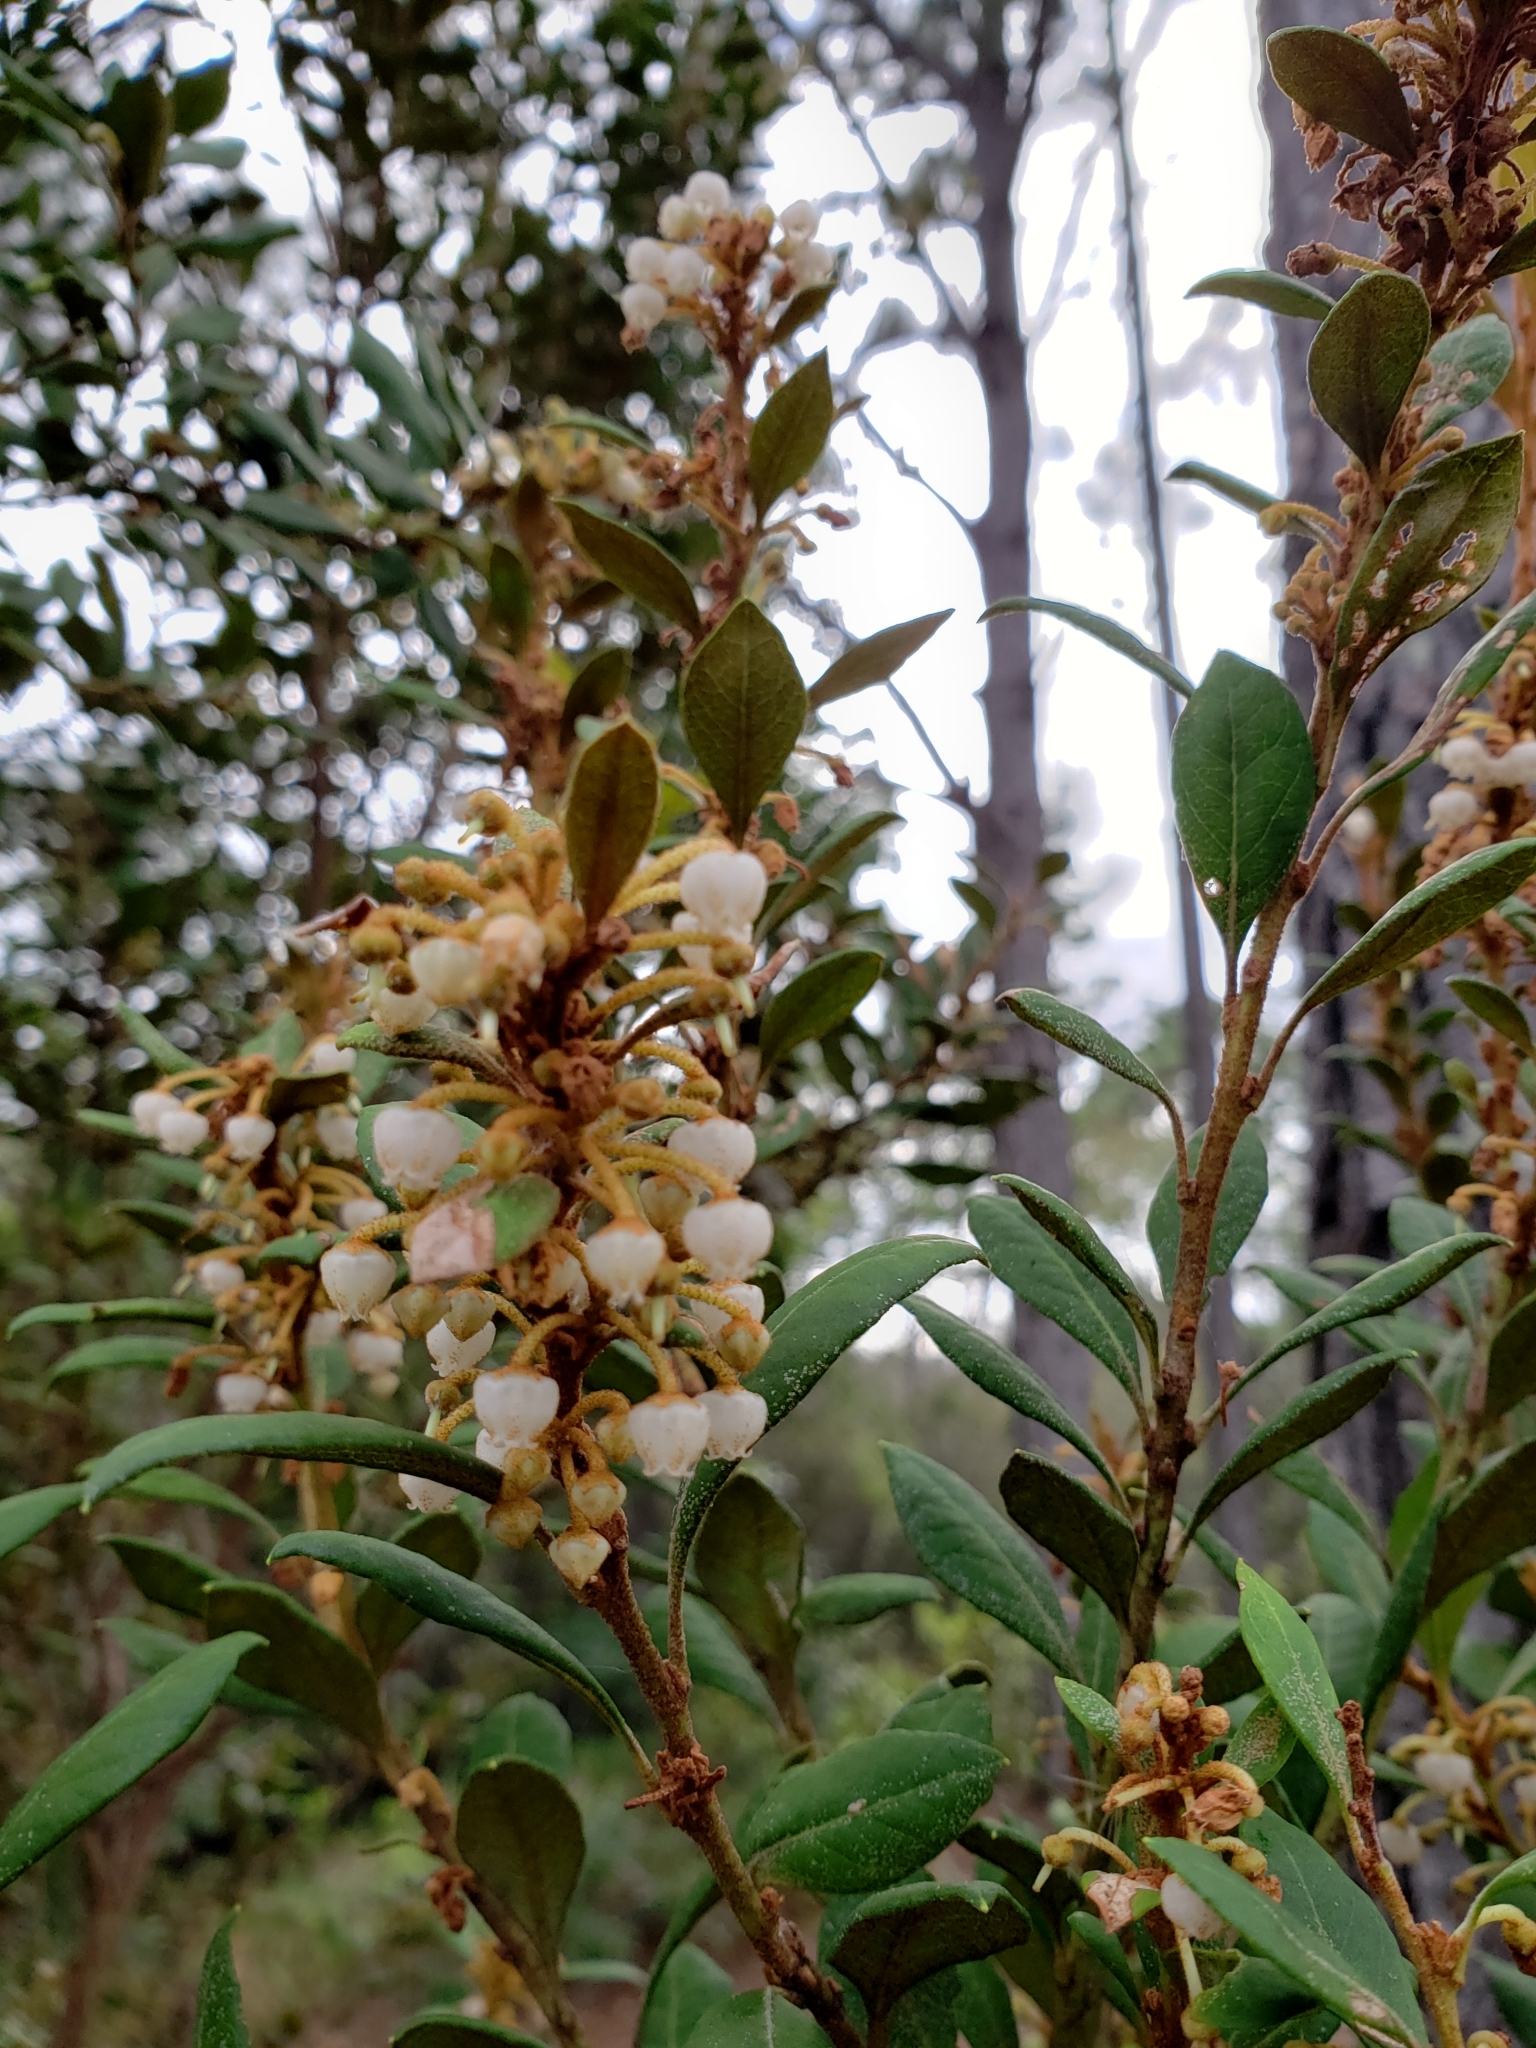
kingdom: Plantae
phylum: Tracheophyta
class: Magnoliopsida
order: Ericales
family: Ericaceae
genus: Lyonia
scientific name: Lyonia ferruginea
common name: Rusty lyonia
